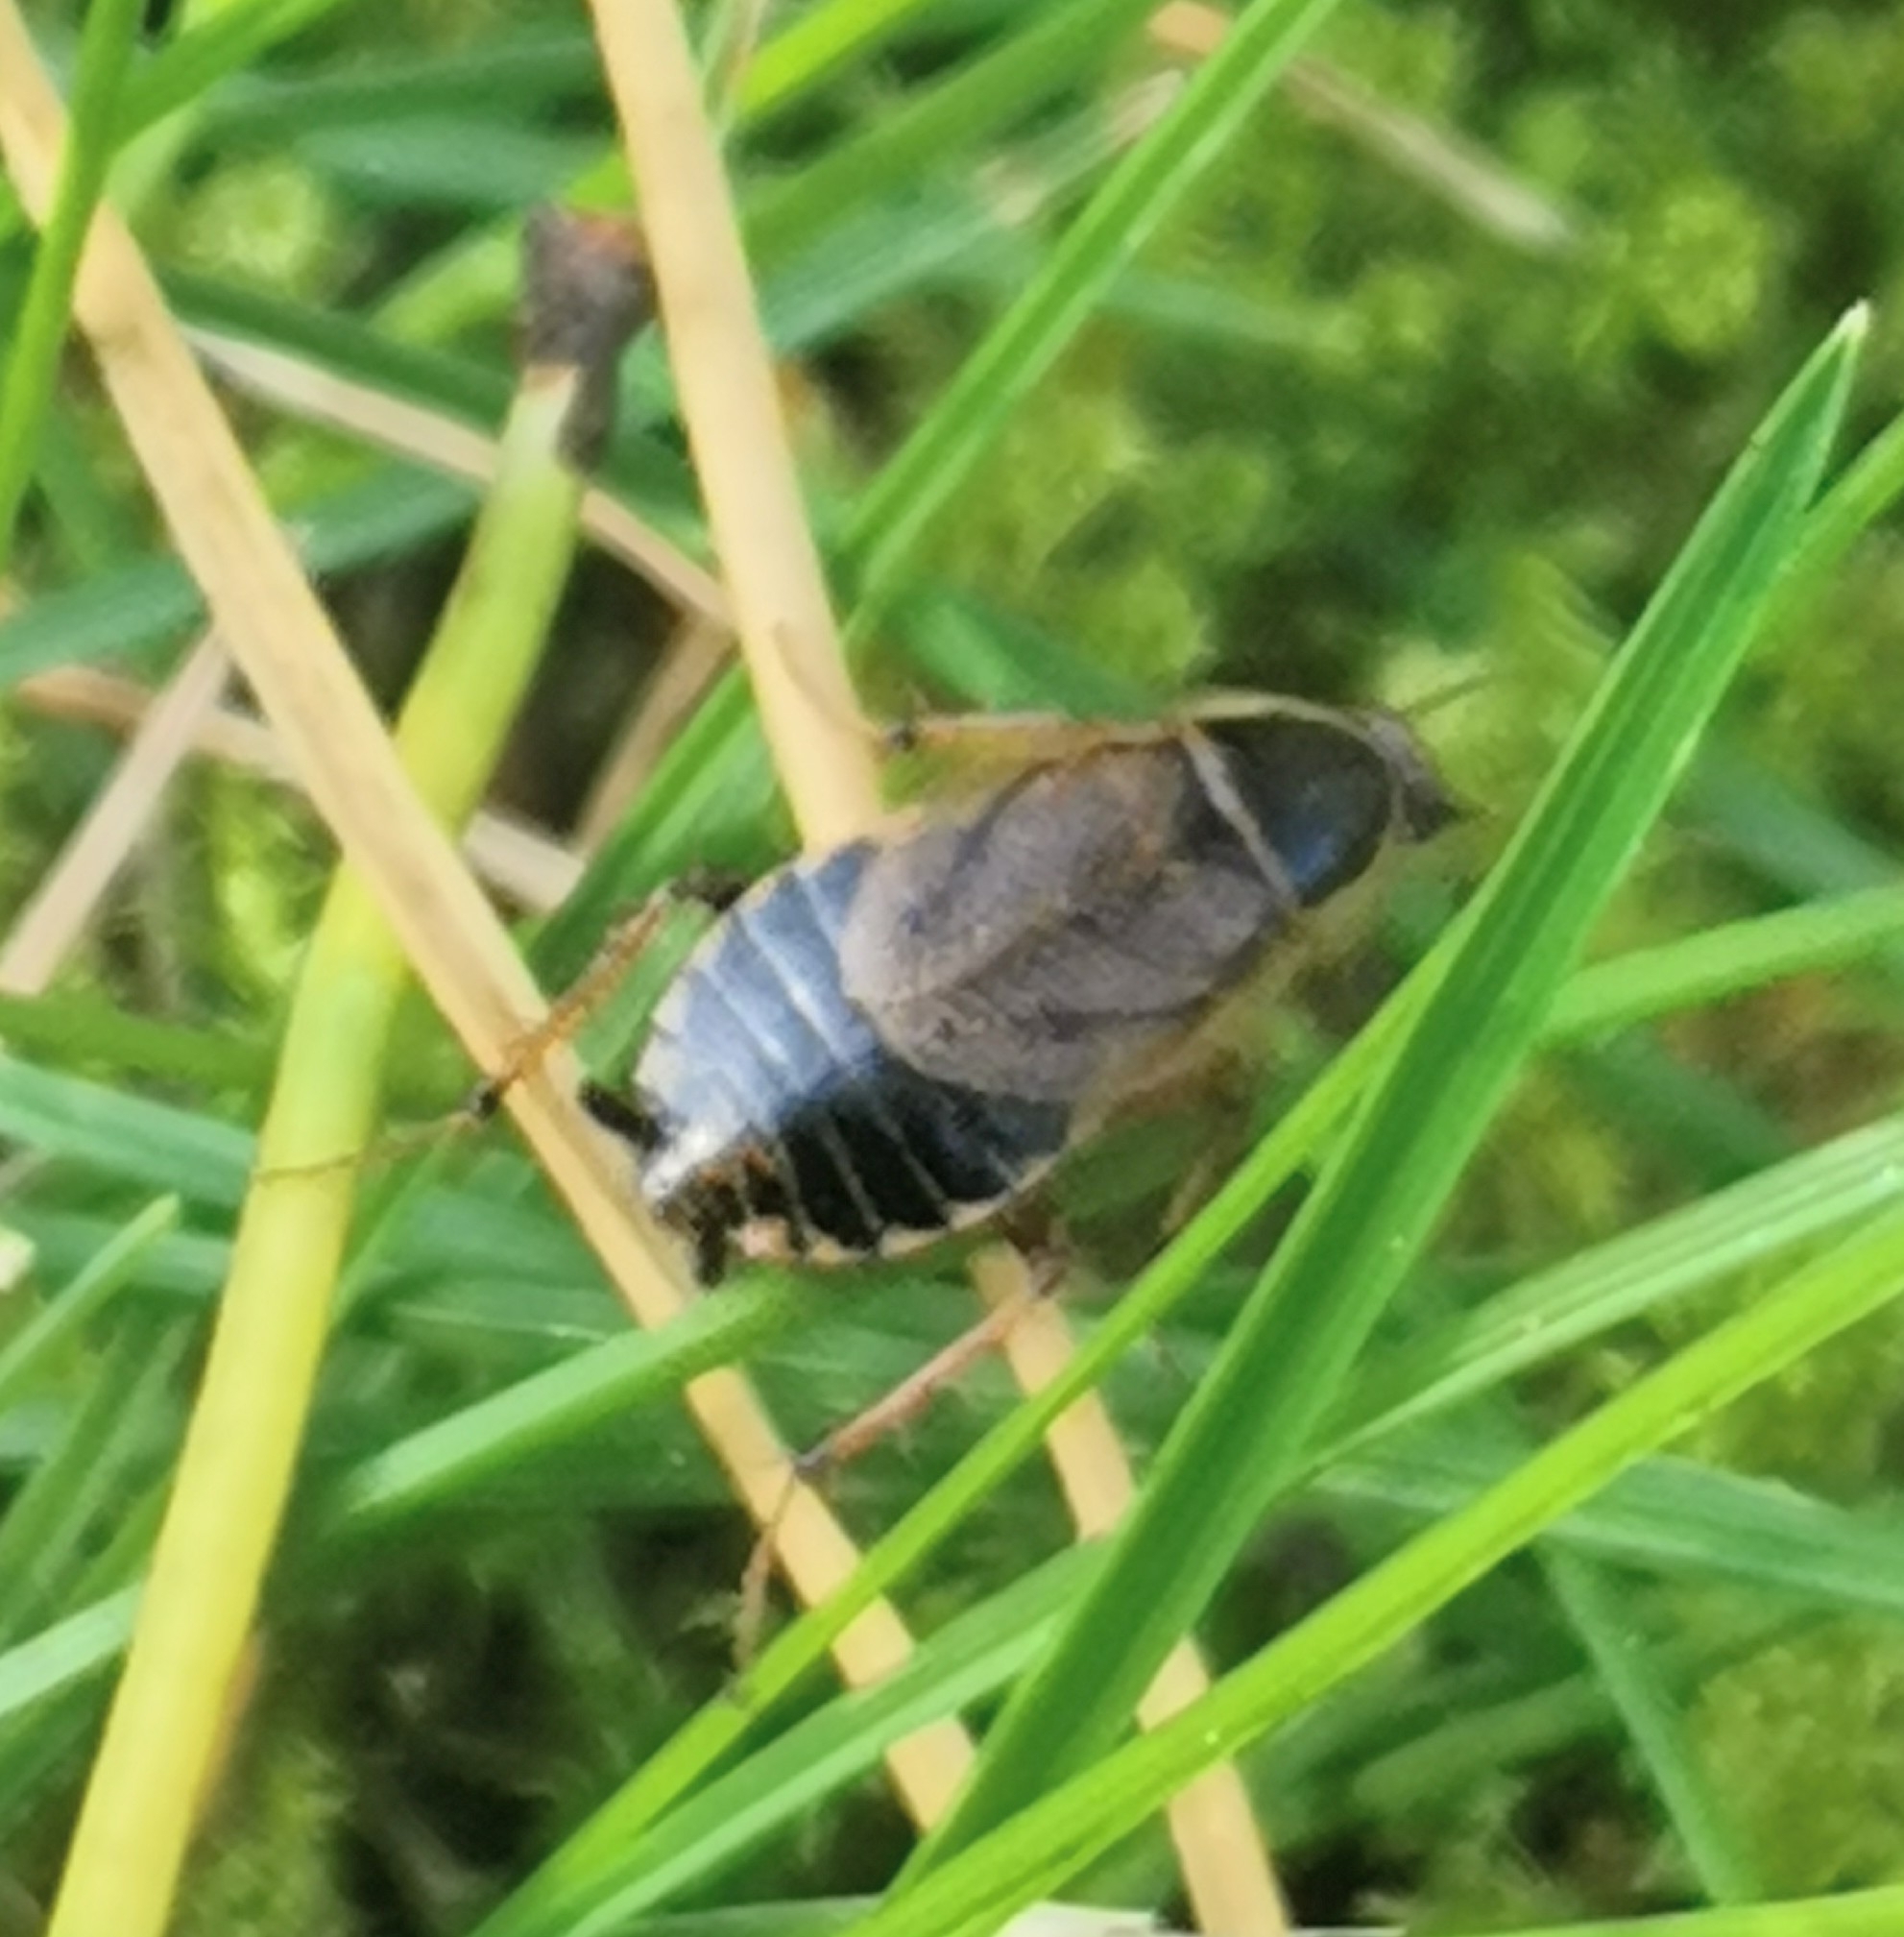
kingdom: Animalia
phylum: Arthropoda
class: Insecta
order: Blattodea
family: Ectobiidae
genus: Ectobius
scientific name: Ectobius sylvestris
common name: Forest cockroach
